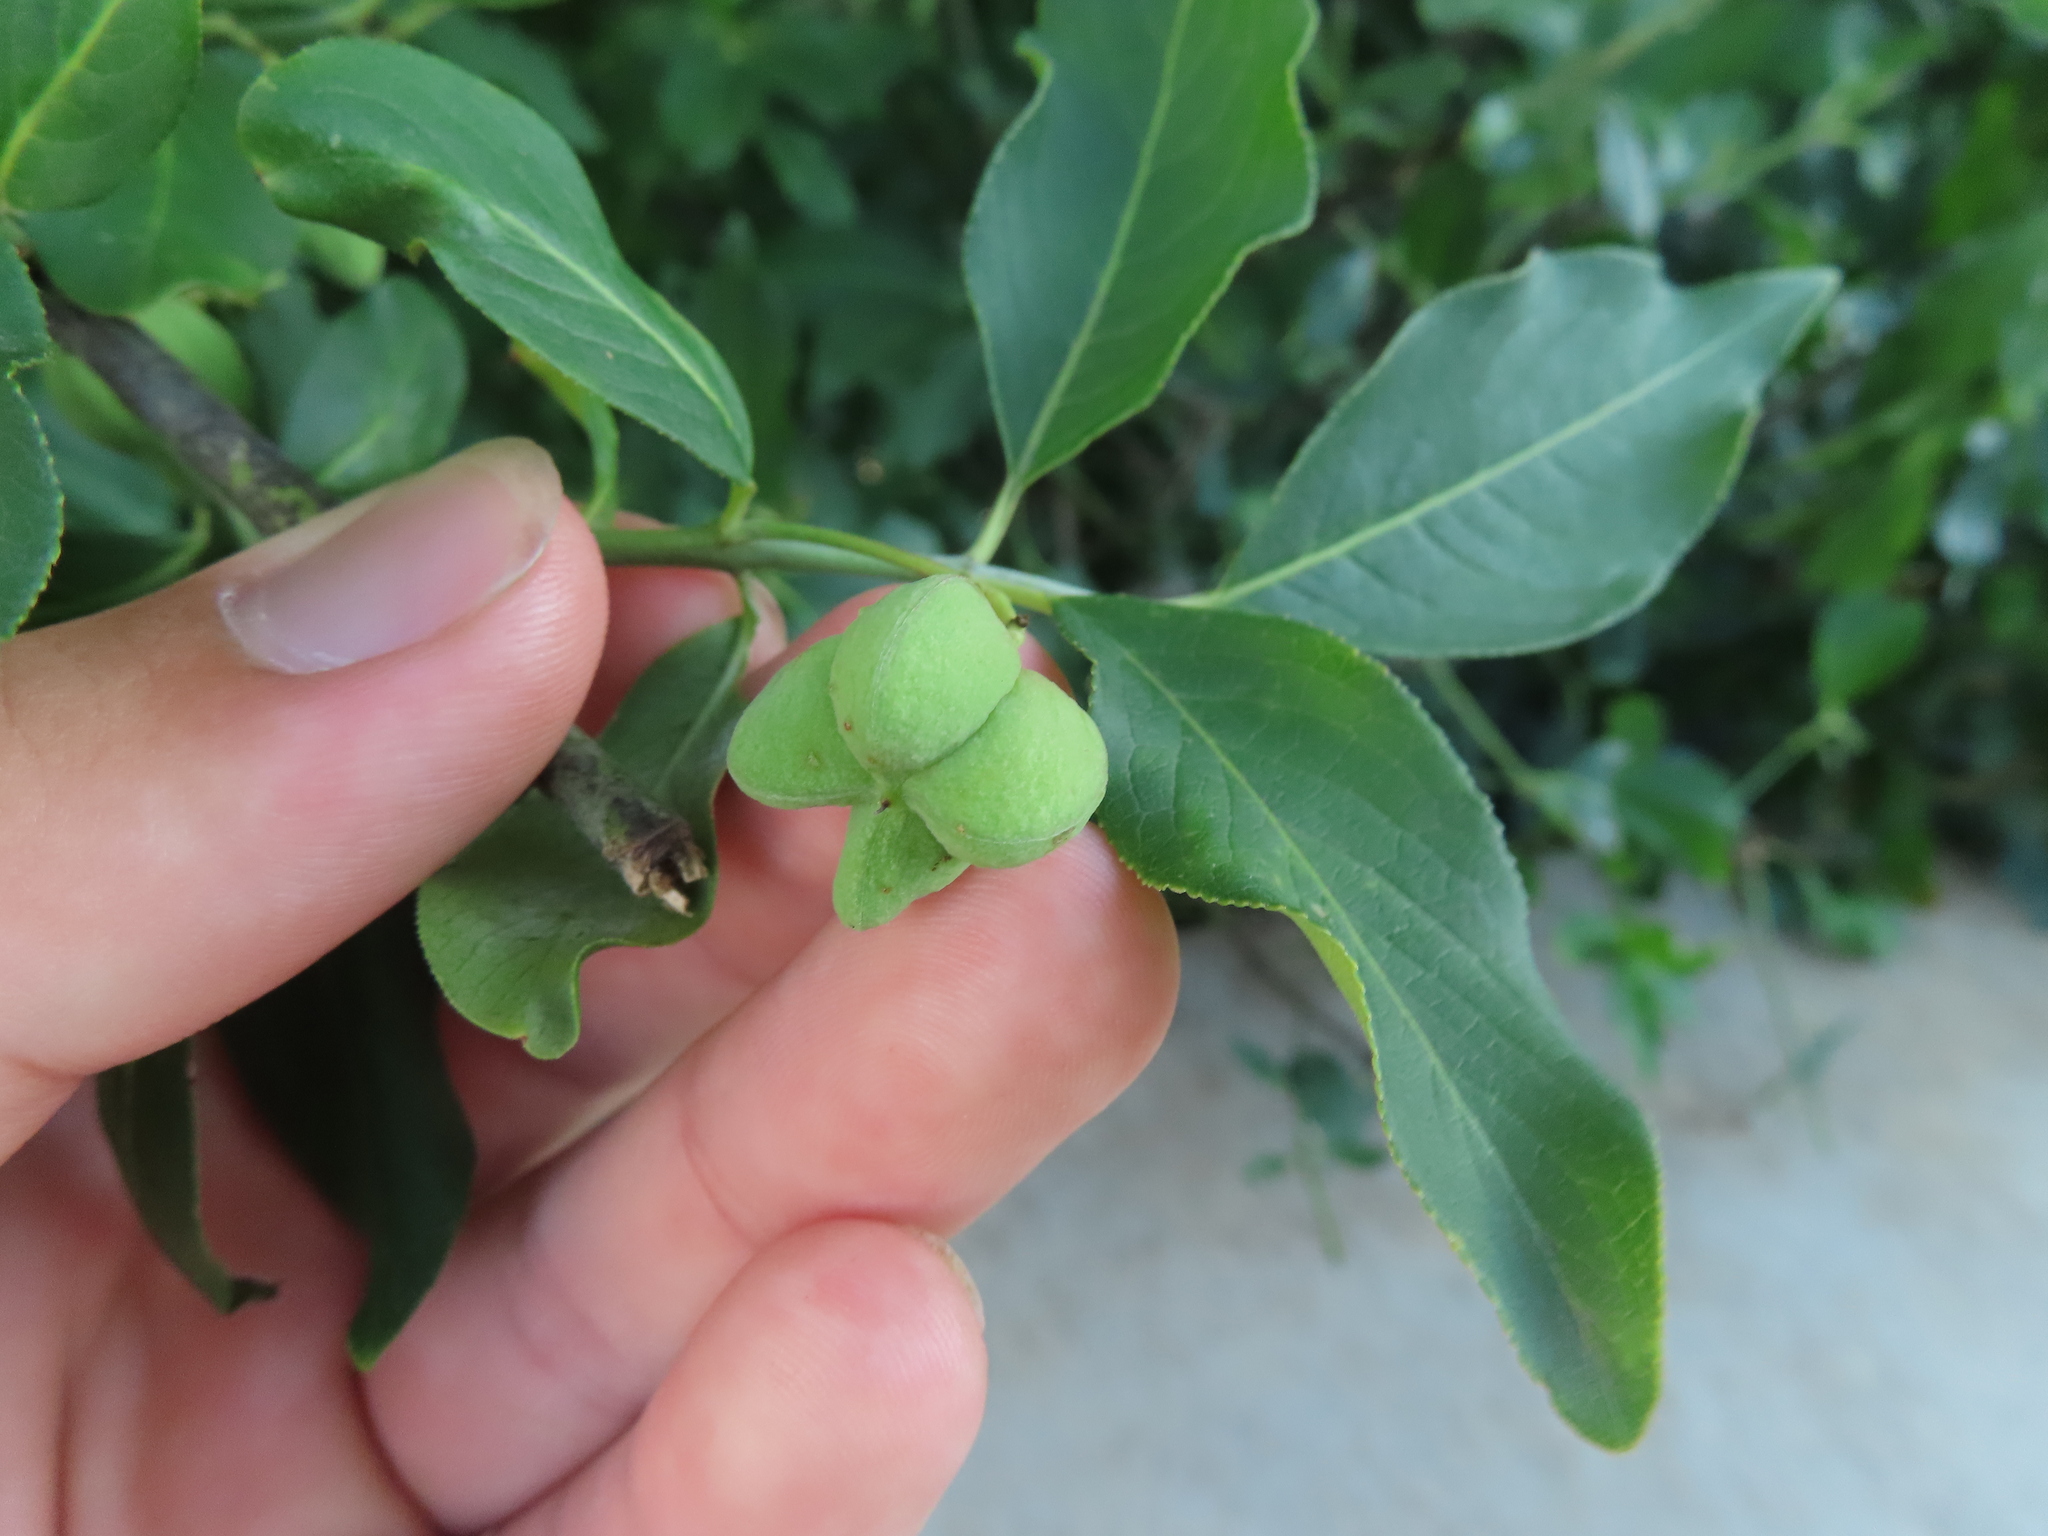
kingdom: Plantae
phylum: Tracheophyta
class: Magnoliopsida
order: Celastrales
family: Celastraceae
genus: Euonymus
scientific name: Euonymus europaeus
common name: Spindle
